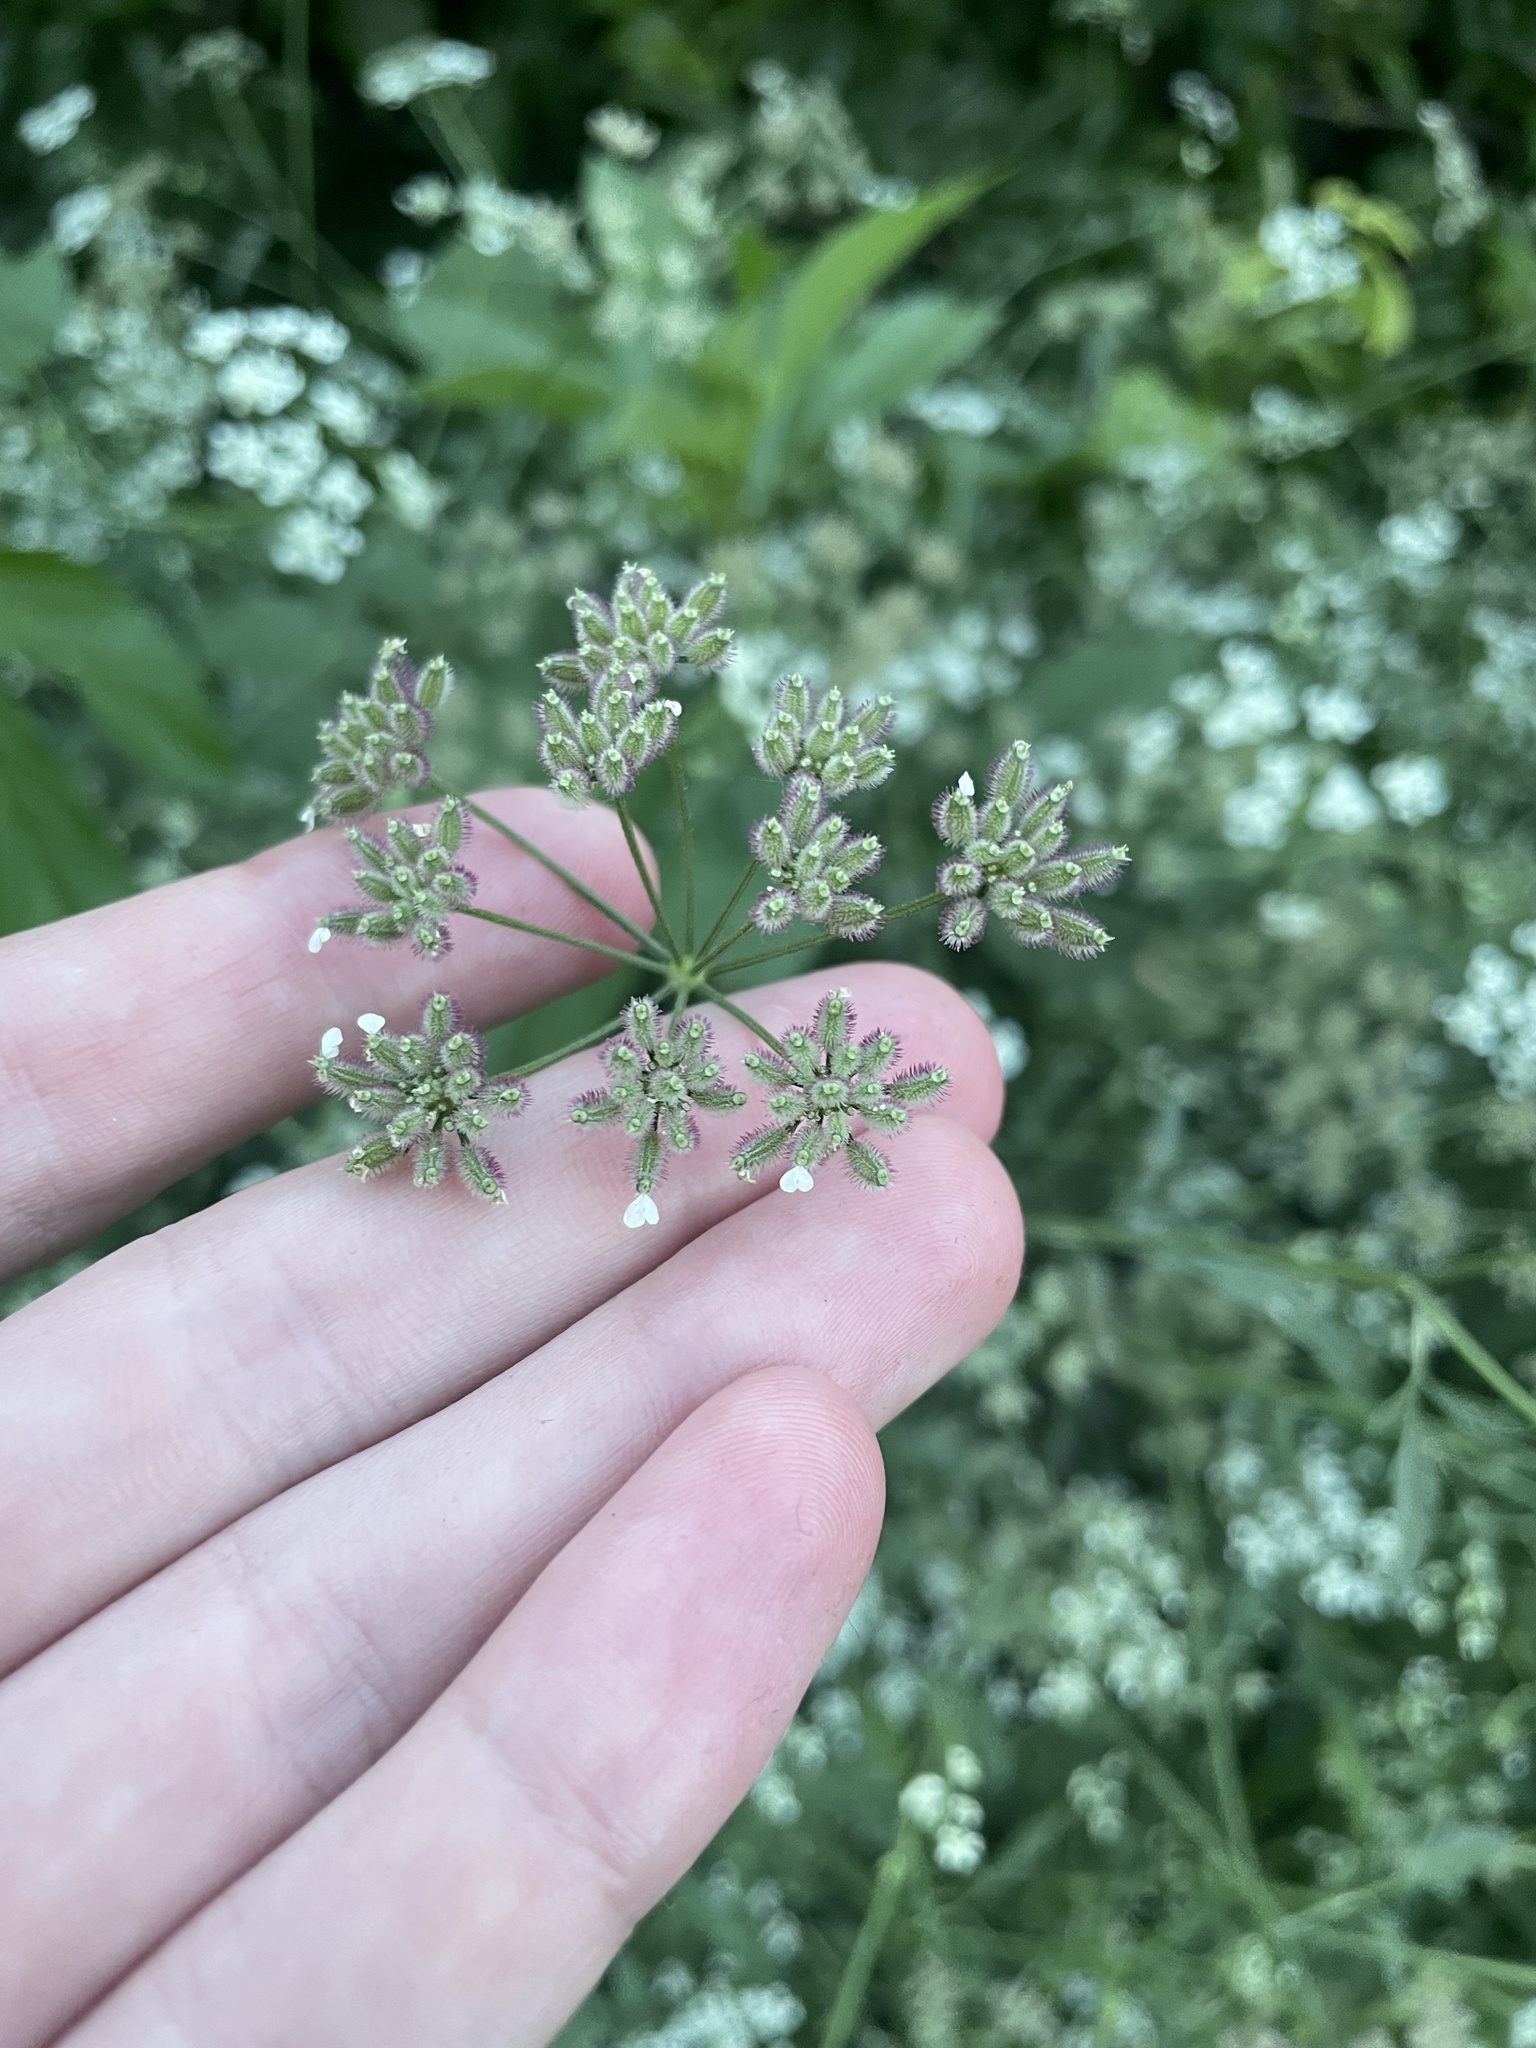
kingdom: Plantae
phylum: Tracheophyta
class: Magnoliopsida
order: Apiales
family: Apiaceae
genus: Torilis
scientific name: Torilis arvensis
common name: Spreading hedge-parsley
